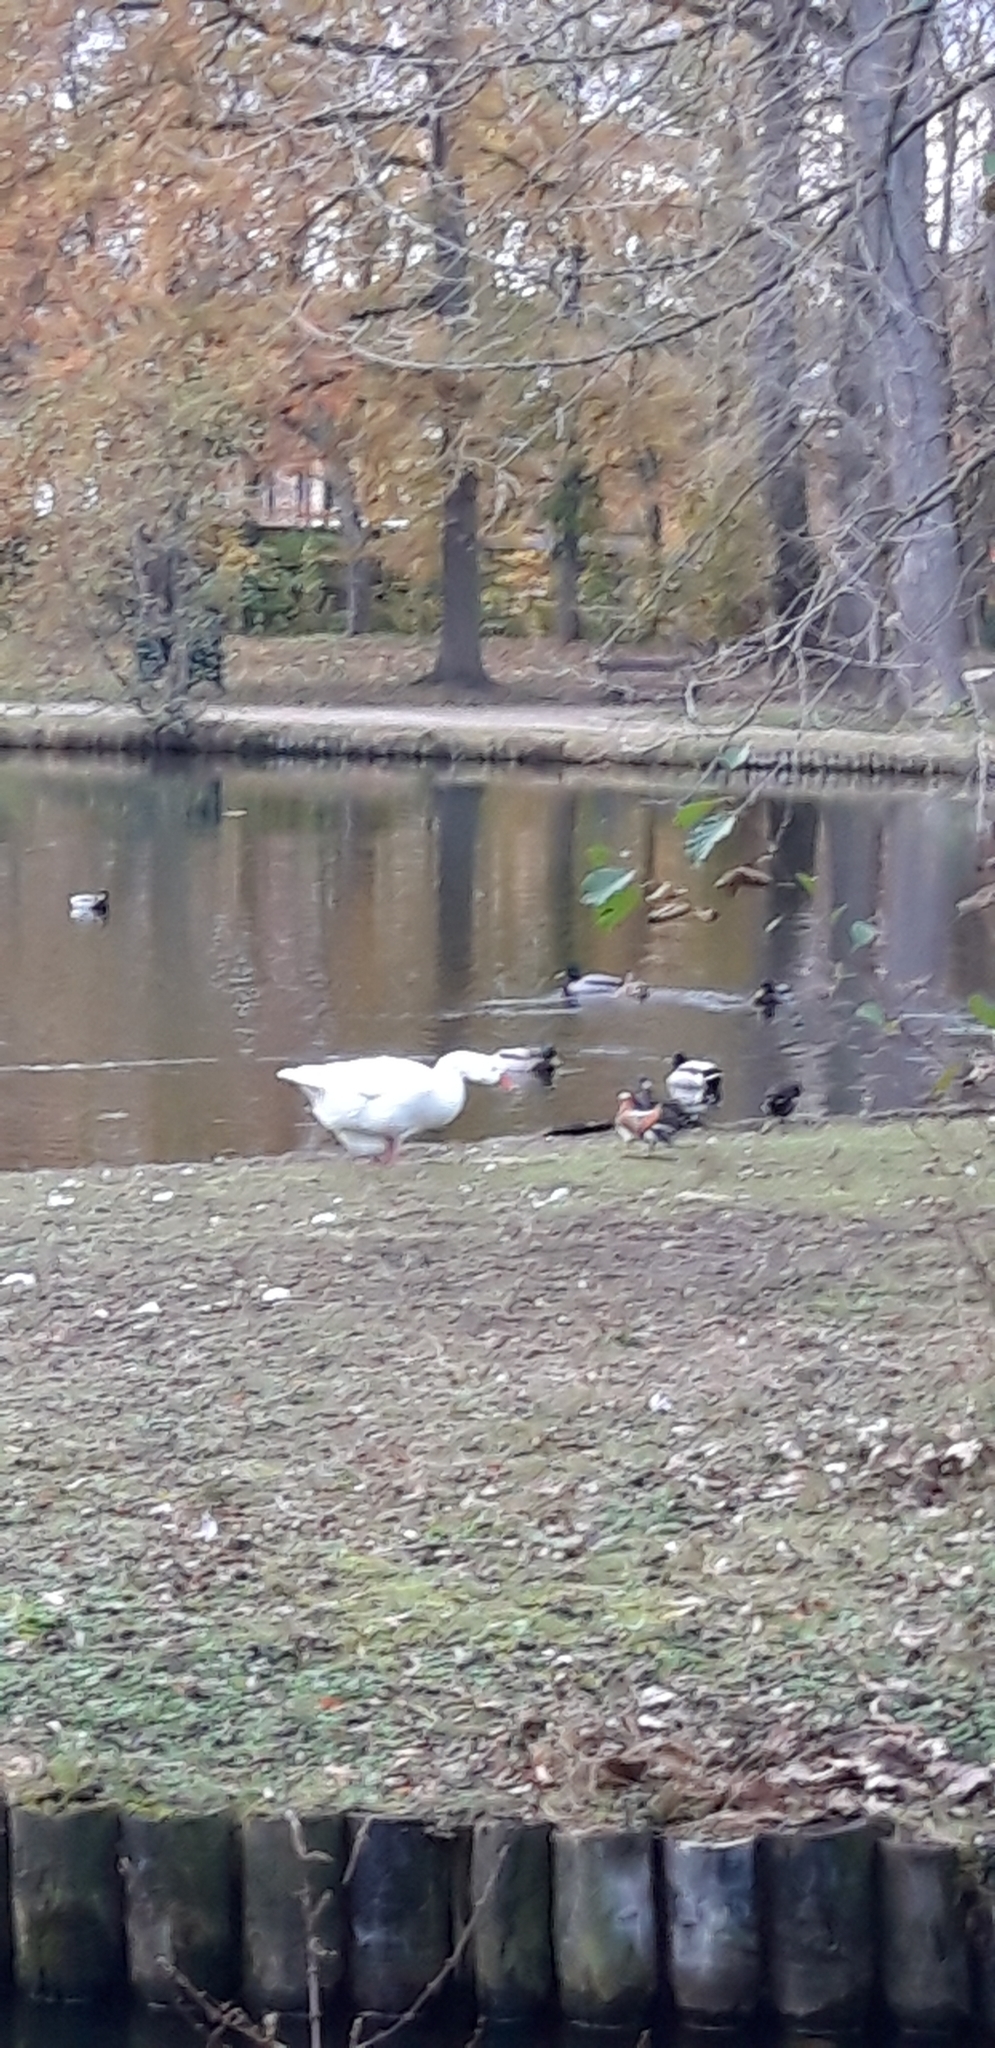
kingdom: Animalia
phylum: Chordata
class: Aves
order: Anseriformes
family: Anatidae
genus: Aix
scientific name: Aix galericulata
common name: Mandarin duck
